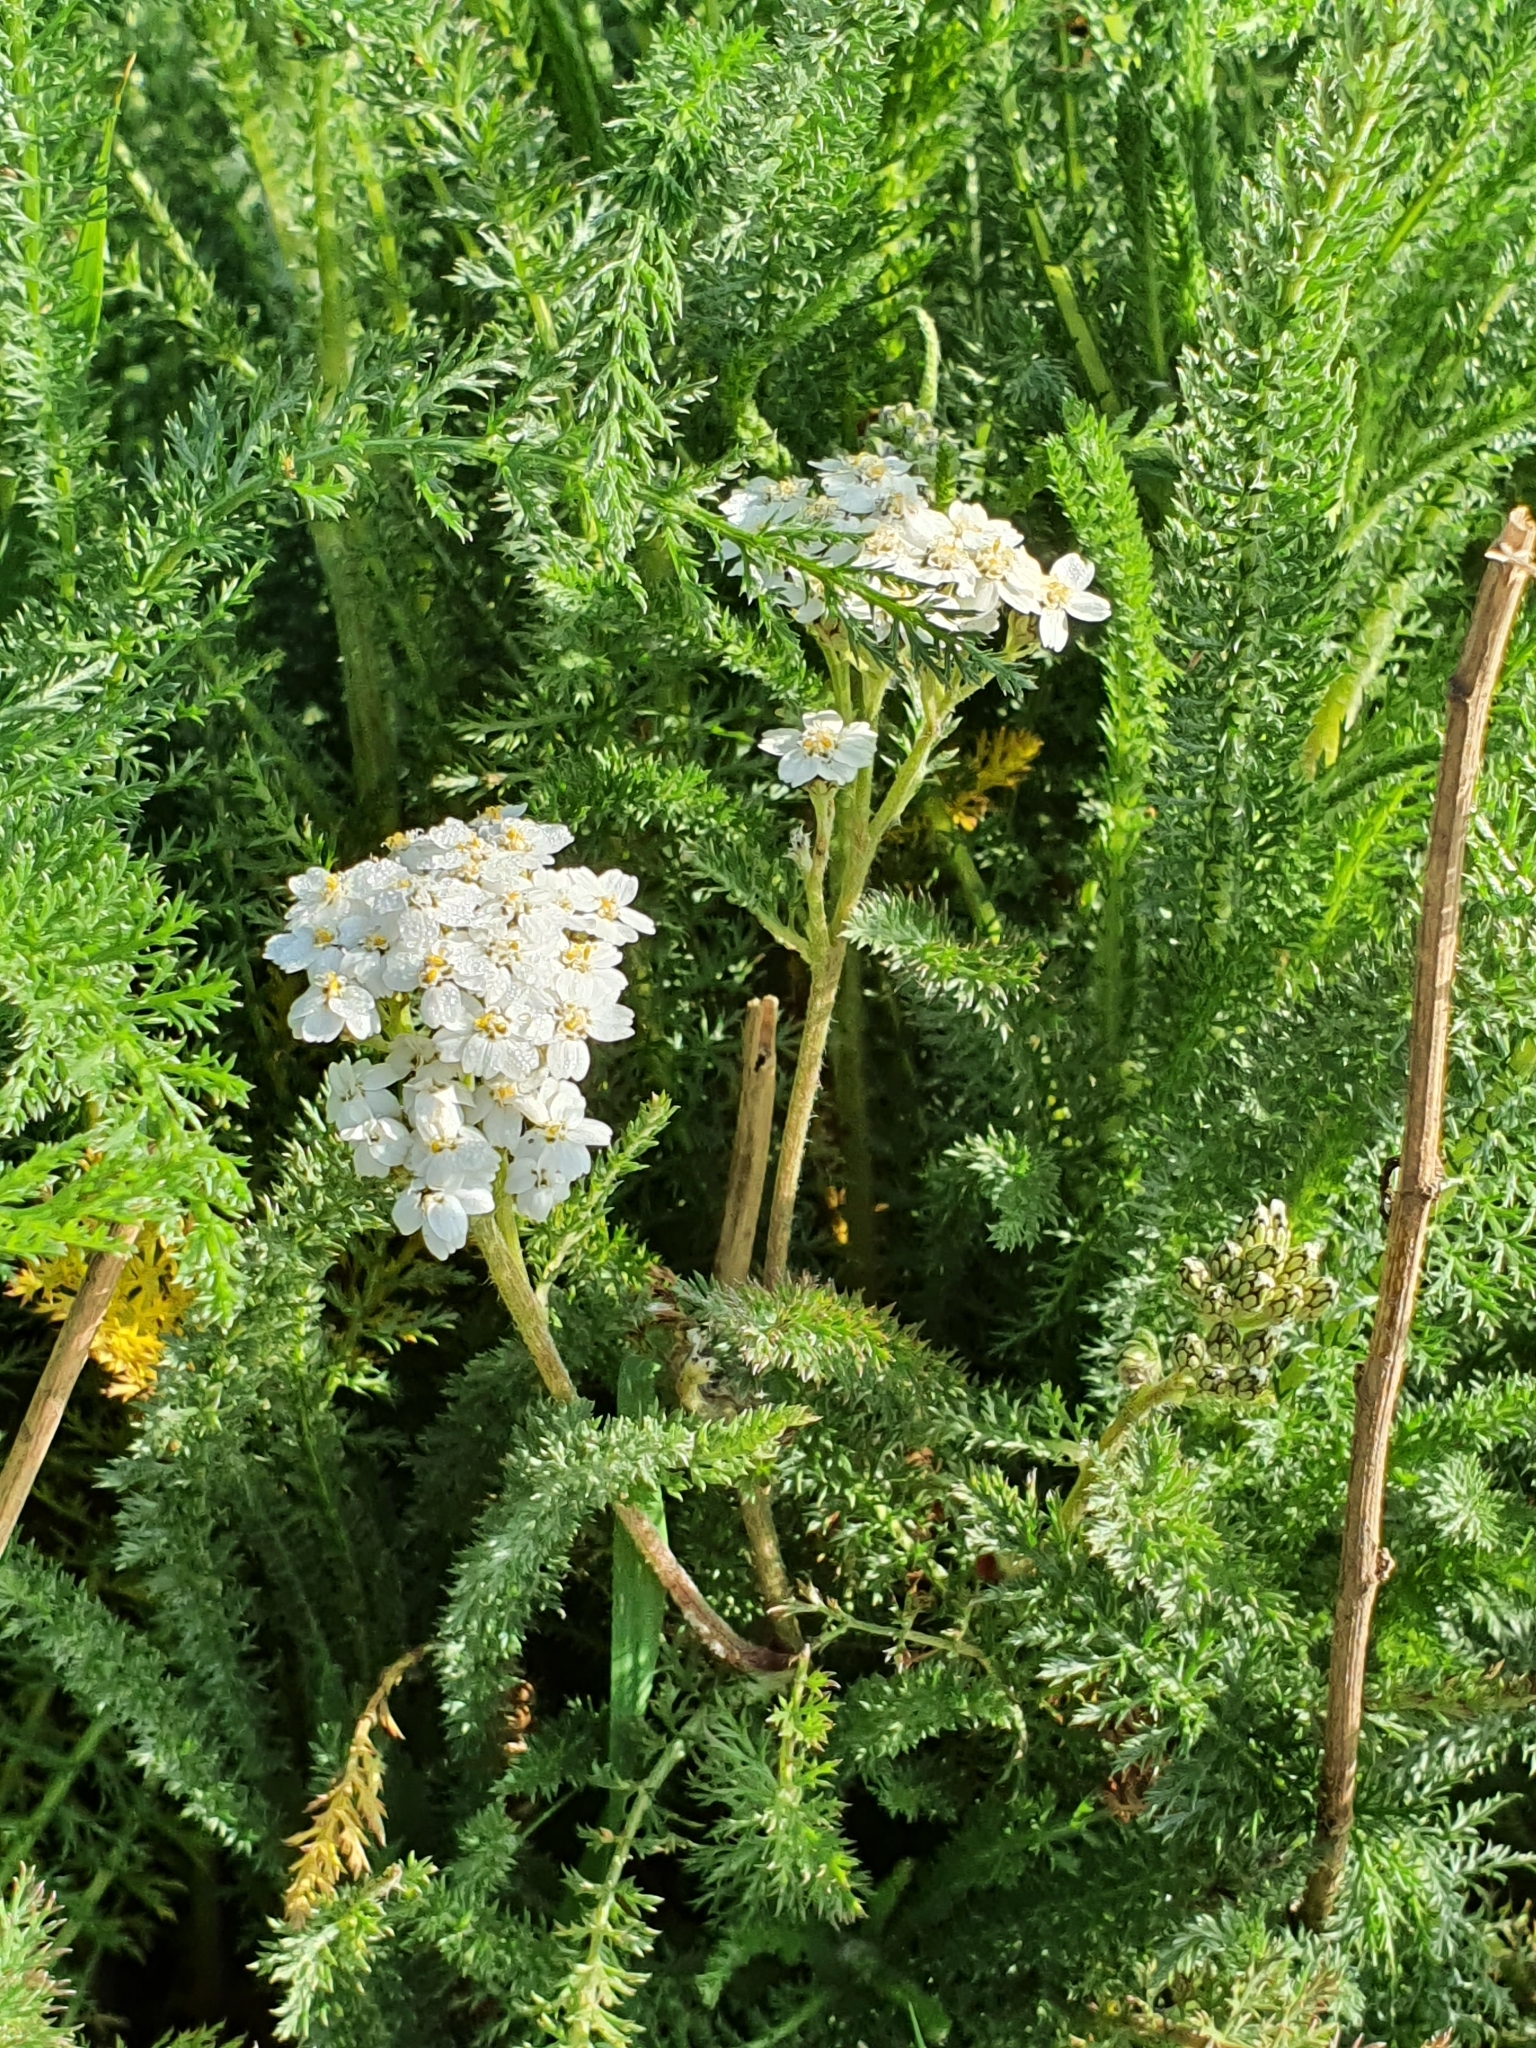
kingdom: Plantae
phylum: Tracheophyta
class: Magnoliopsida
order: Asterales
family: Asteraceae
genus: Achillea
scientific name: Achillea millefolium
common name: Yarrow
